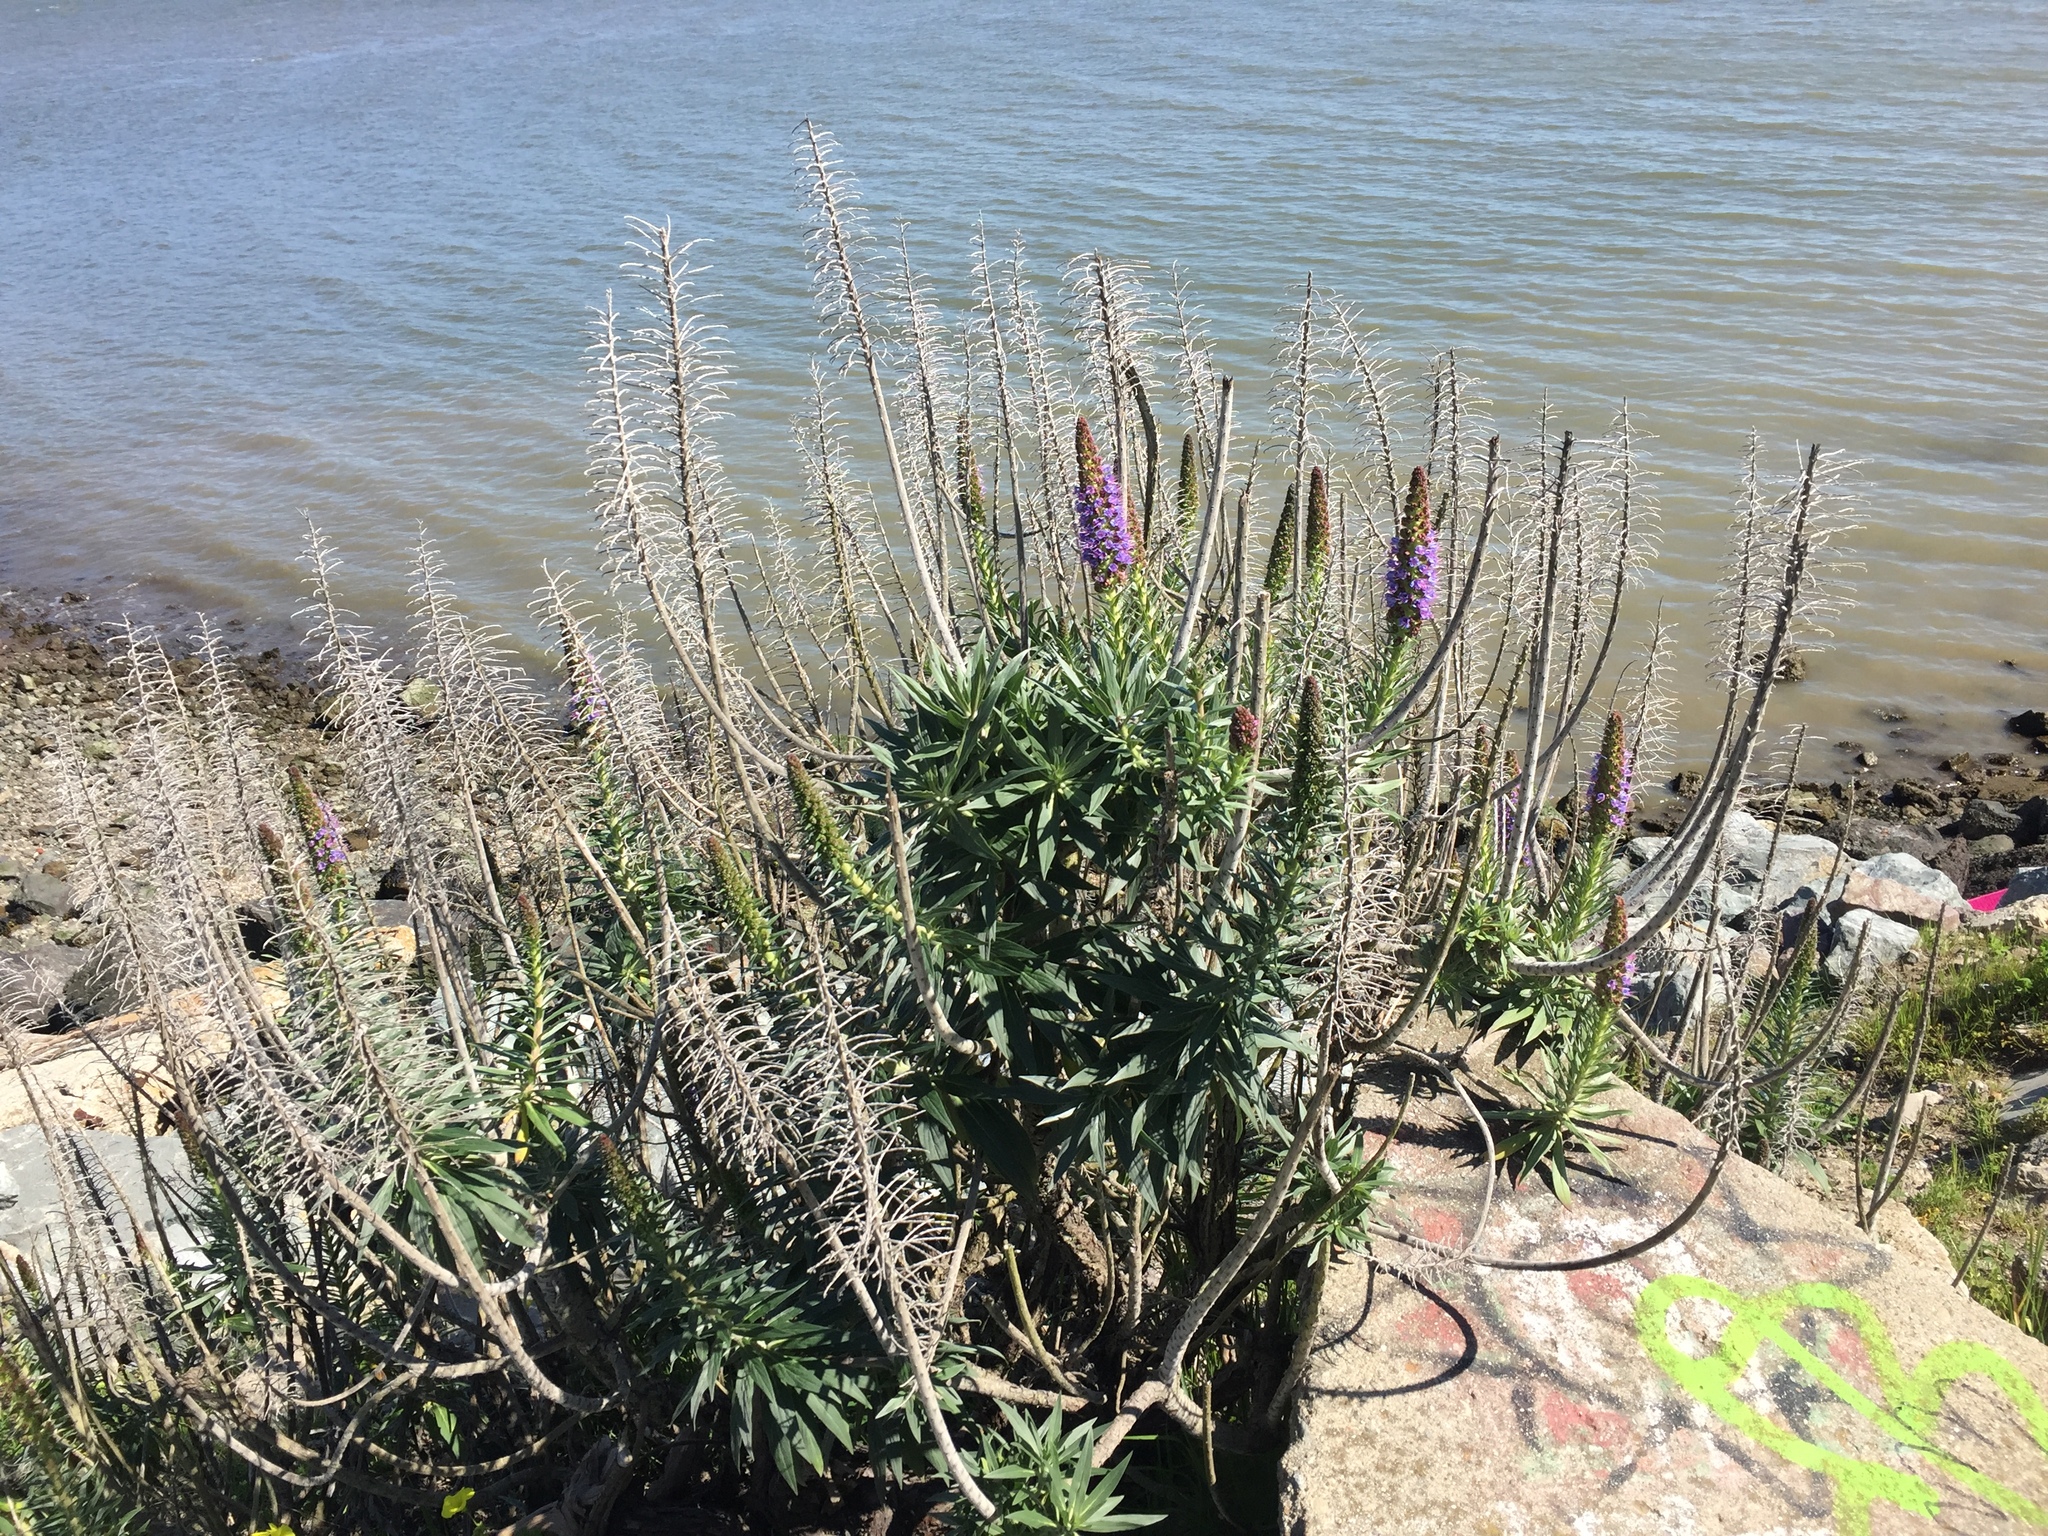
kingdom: Plantae
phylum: Tracheophyta
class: Magnoliopsida
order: Boraginales
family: Boraginaceae
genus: Echium
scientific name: Echium candicans
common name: Pride of madeira
